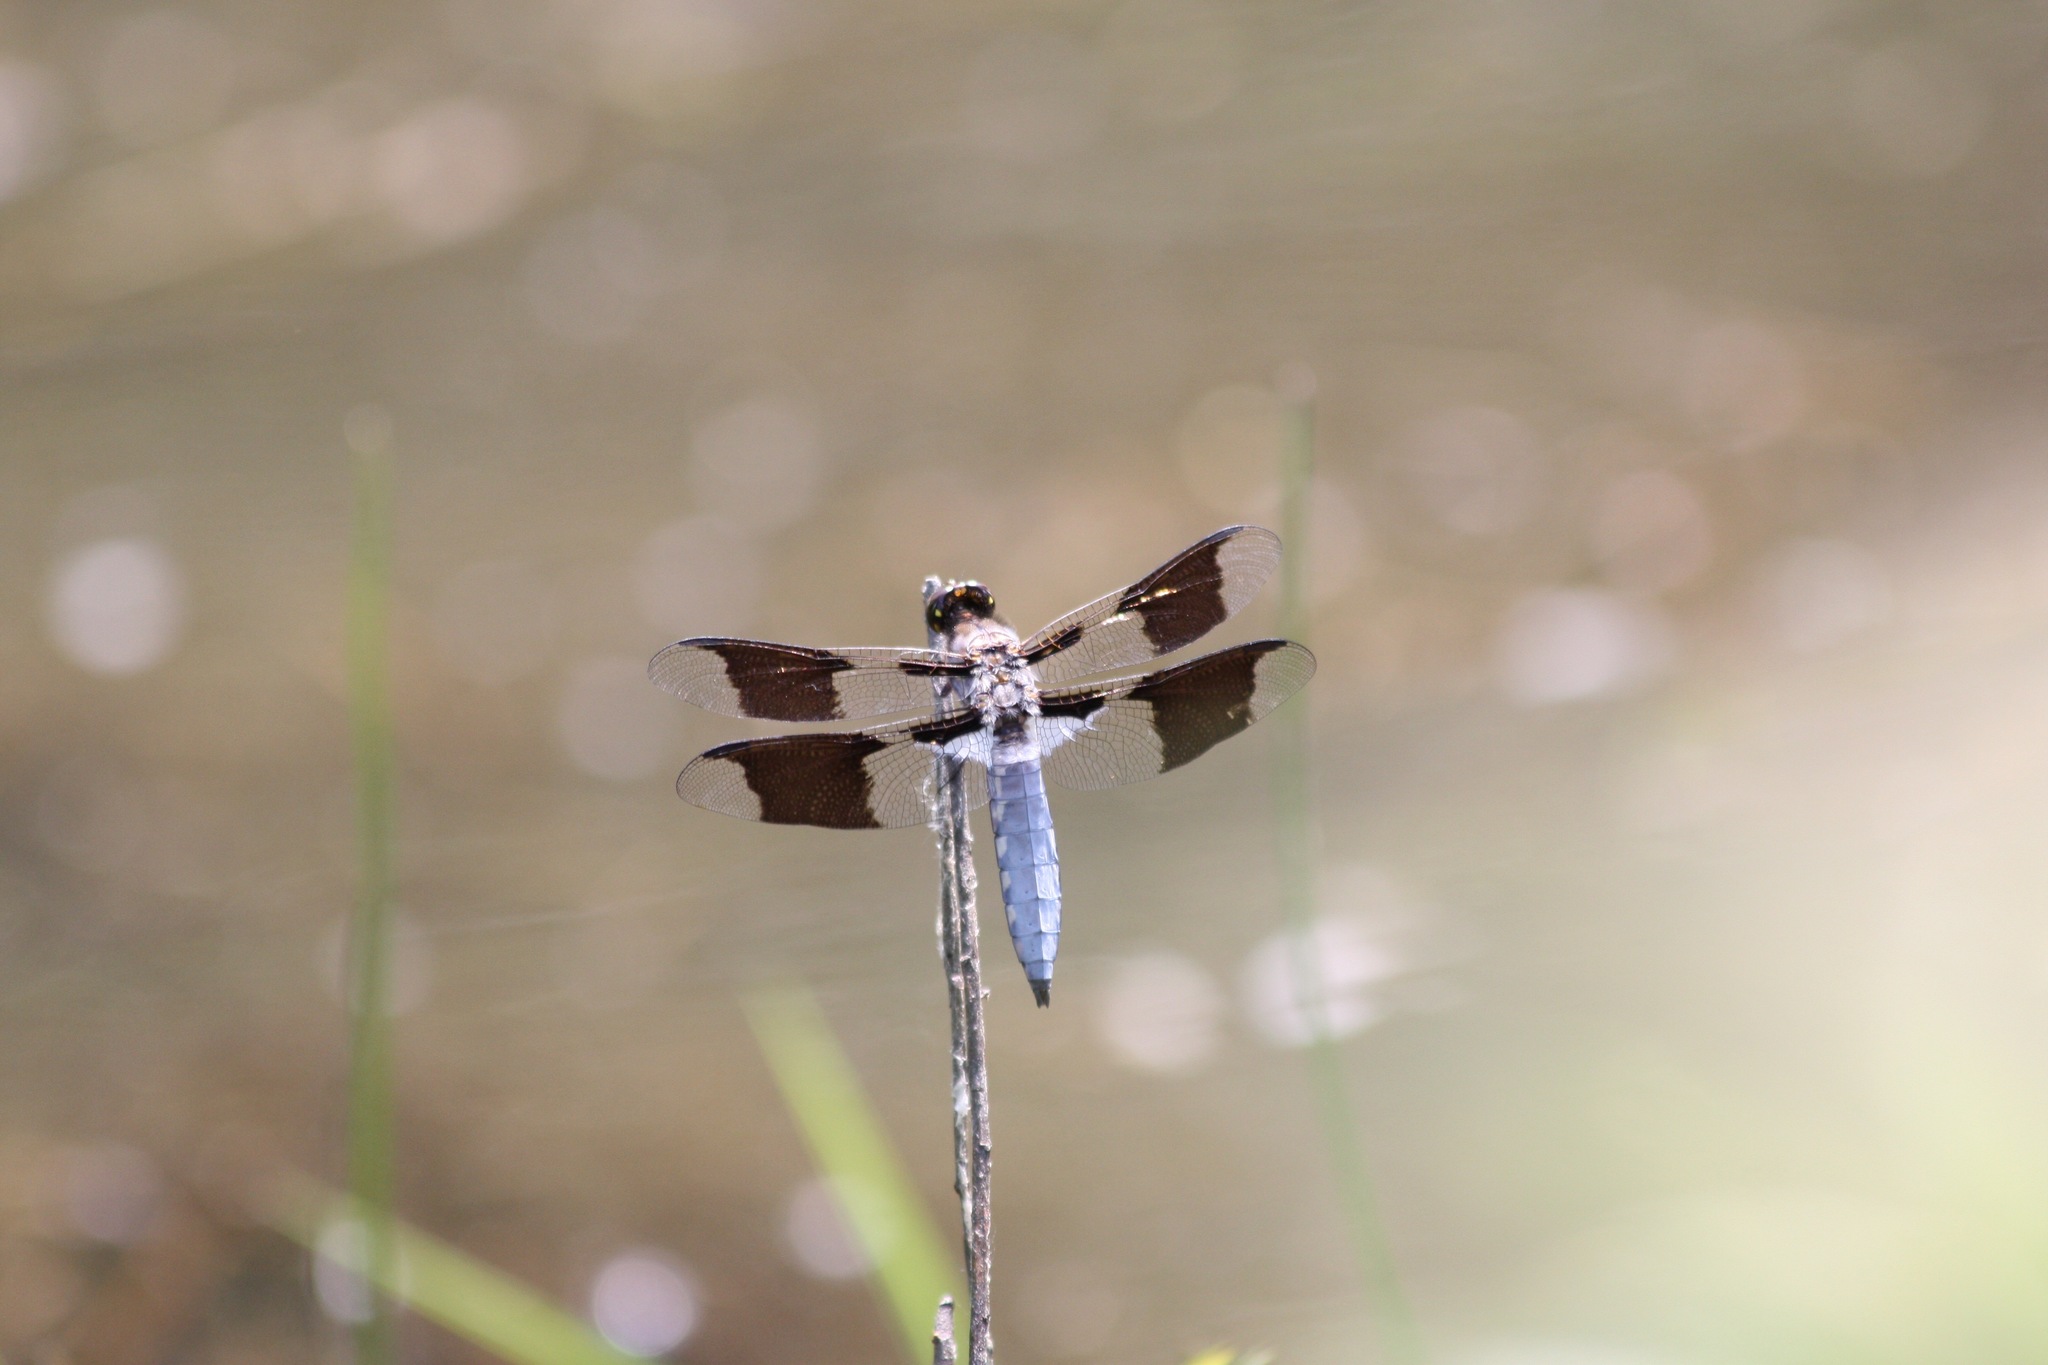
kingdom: Animalia
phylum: Arthropoda
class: Insecta
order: Odonata
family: Libellulidae
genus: Plathemis
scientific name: Plathemis lydia
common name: Common whitetail
